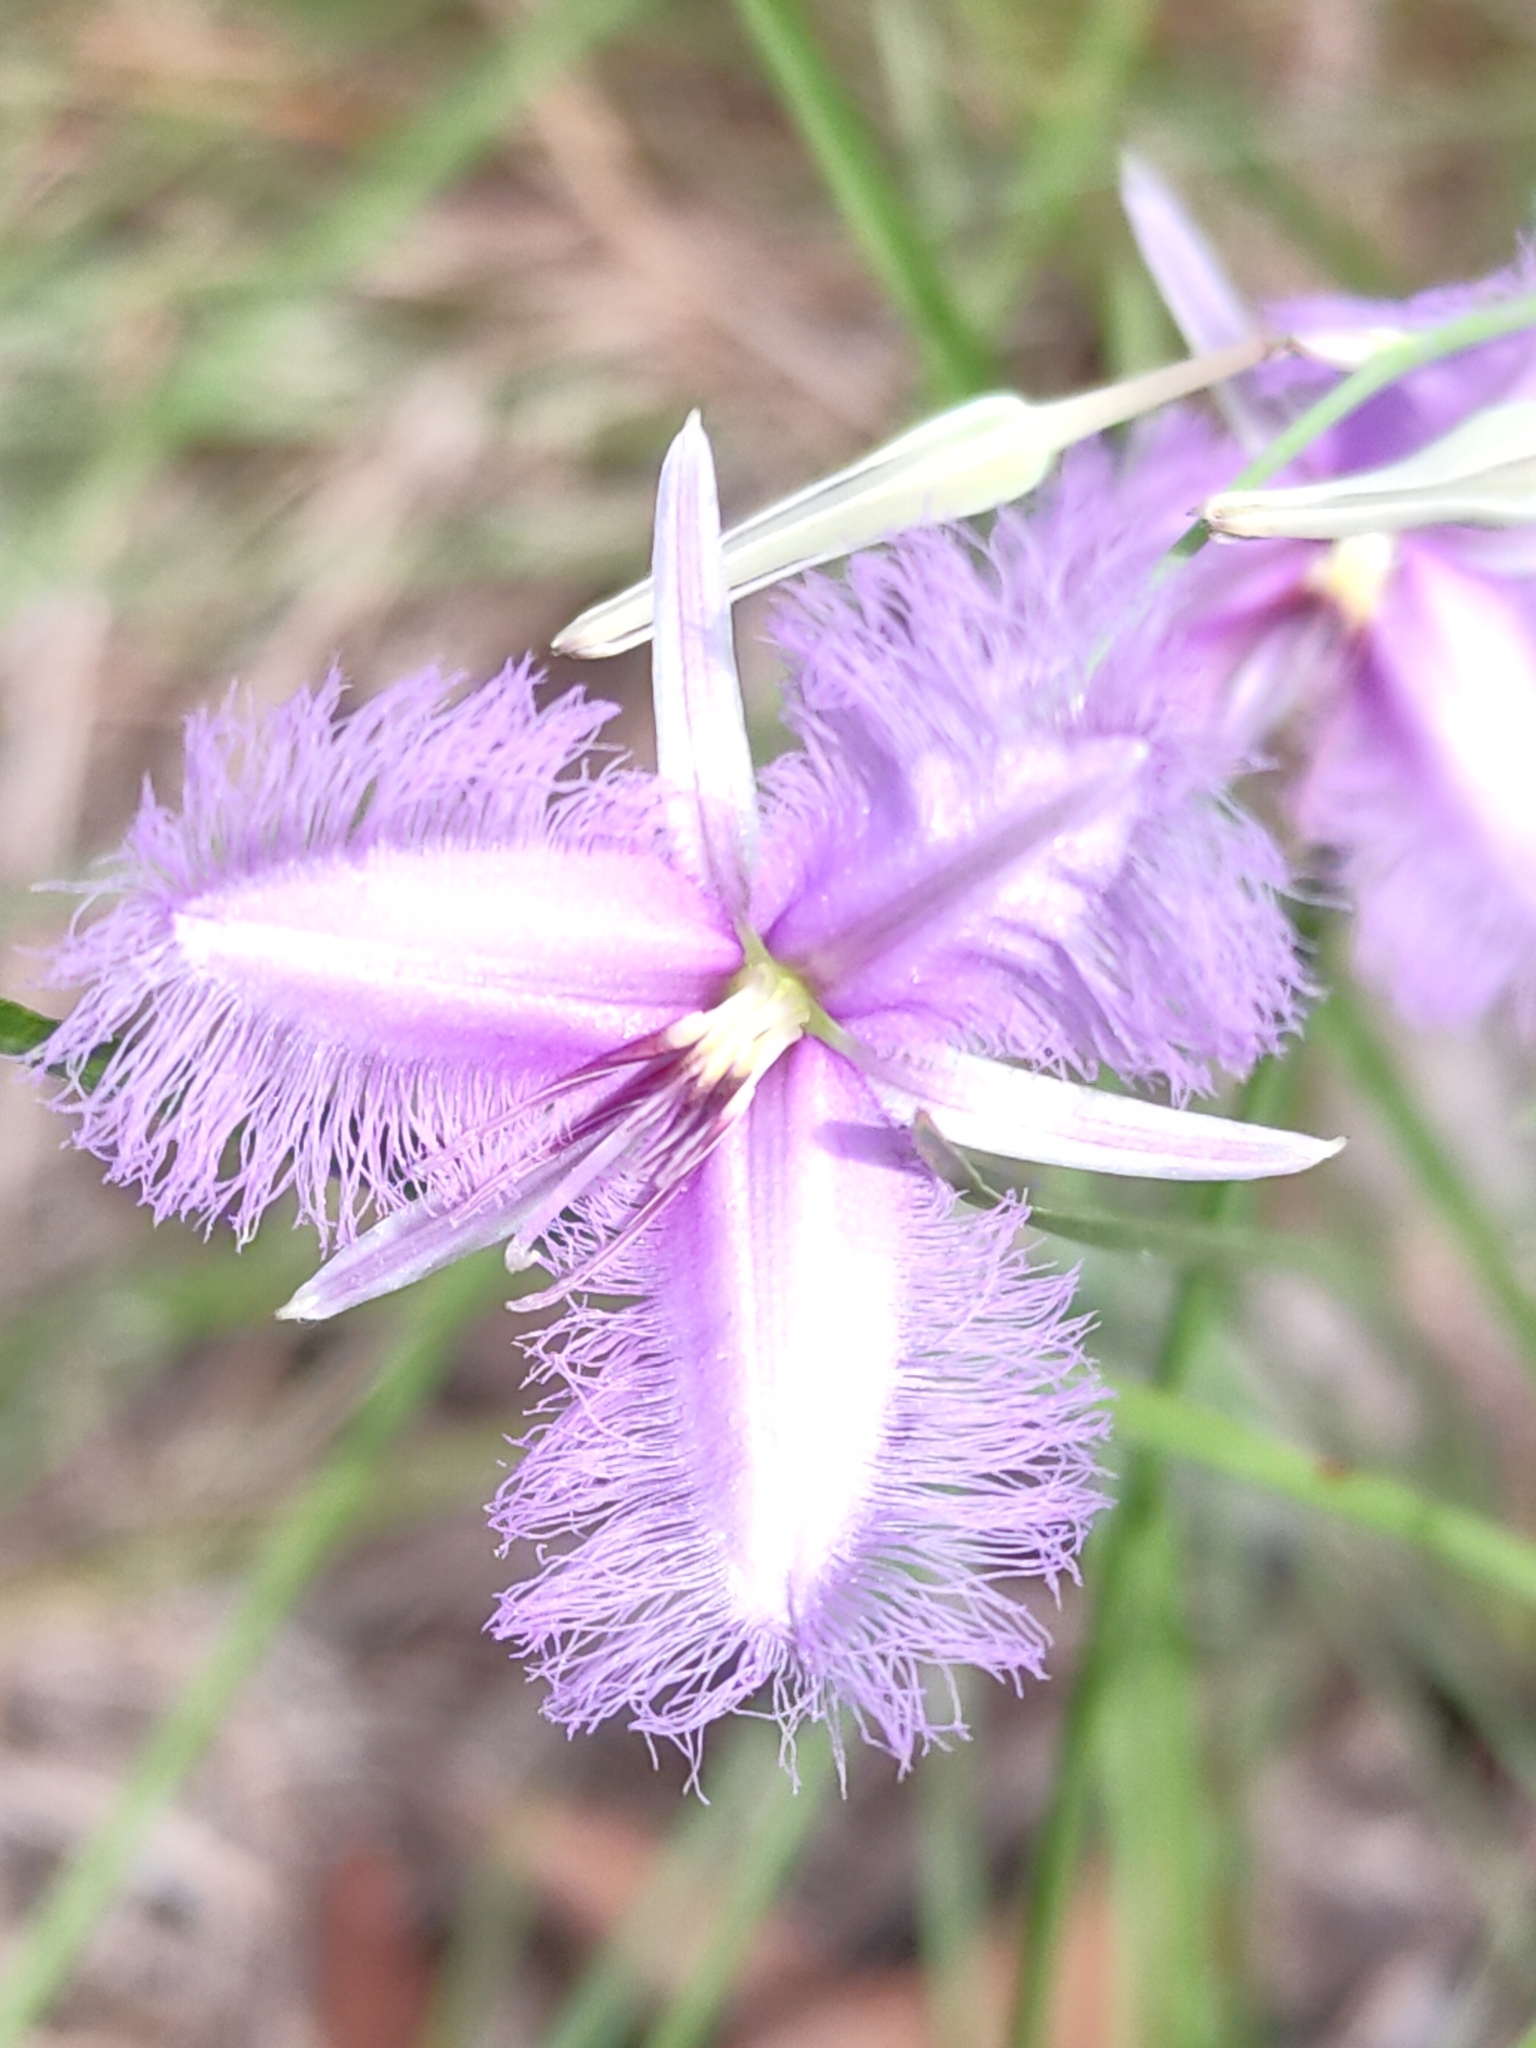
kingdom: Plantae
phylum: Tracheophyta
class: Liliopsida
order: Asparagales
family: Asparagaceae
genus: Thysanotus
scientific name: Thysanotus tuberosus
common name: Common fringed-lily
